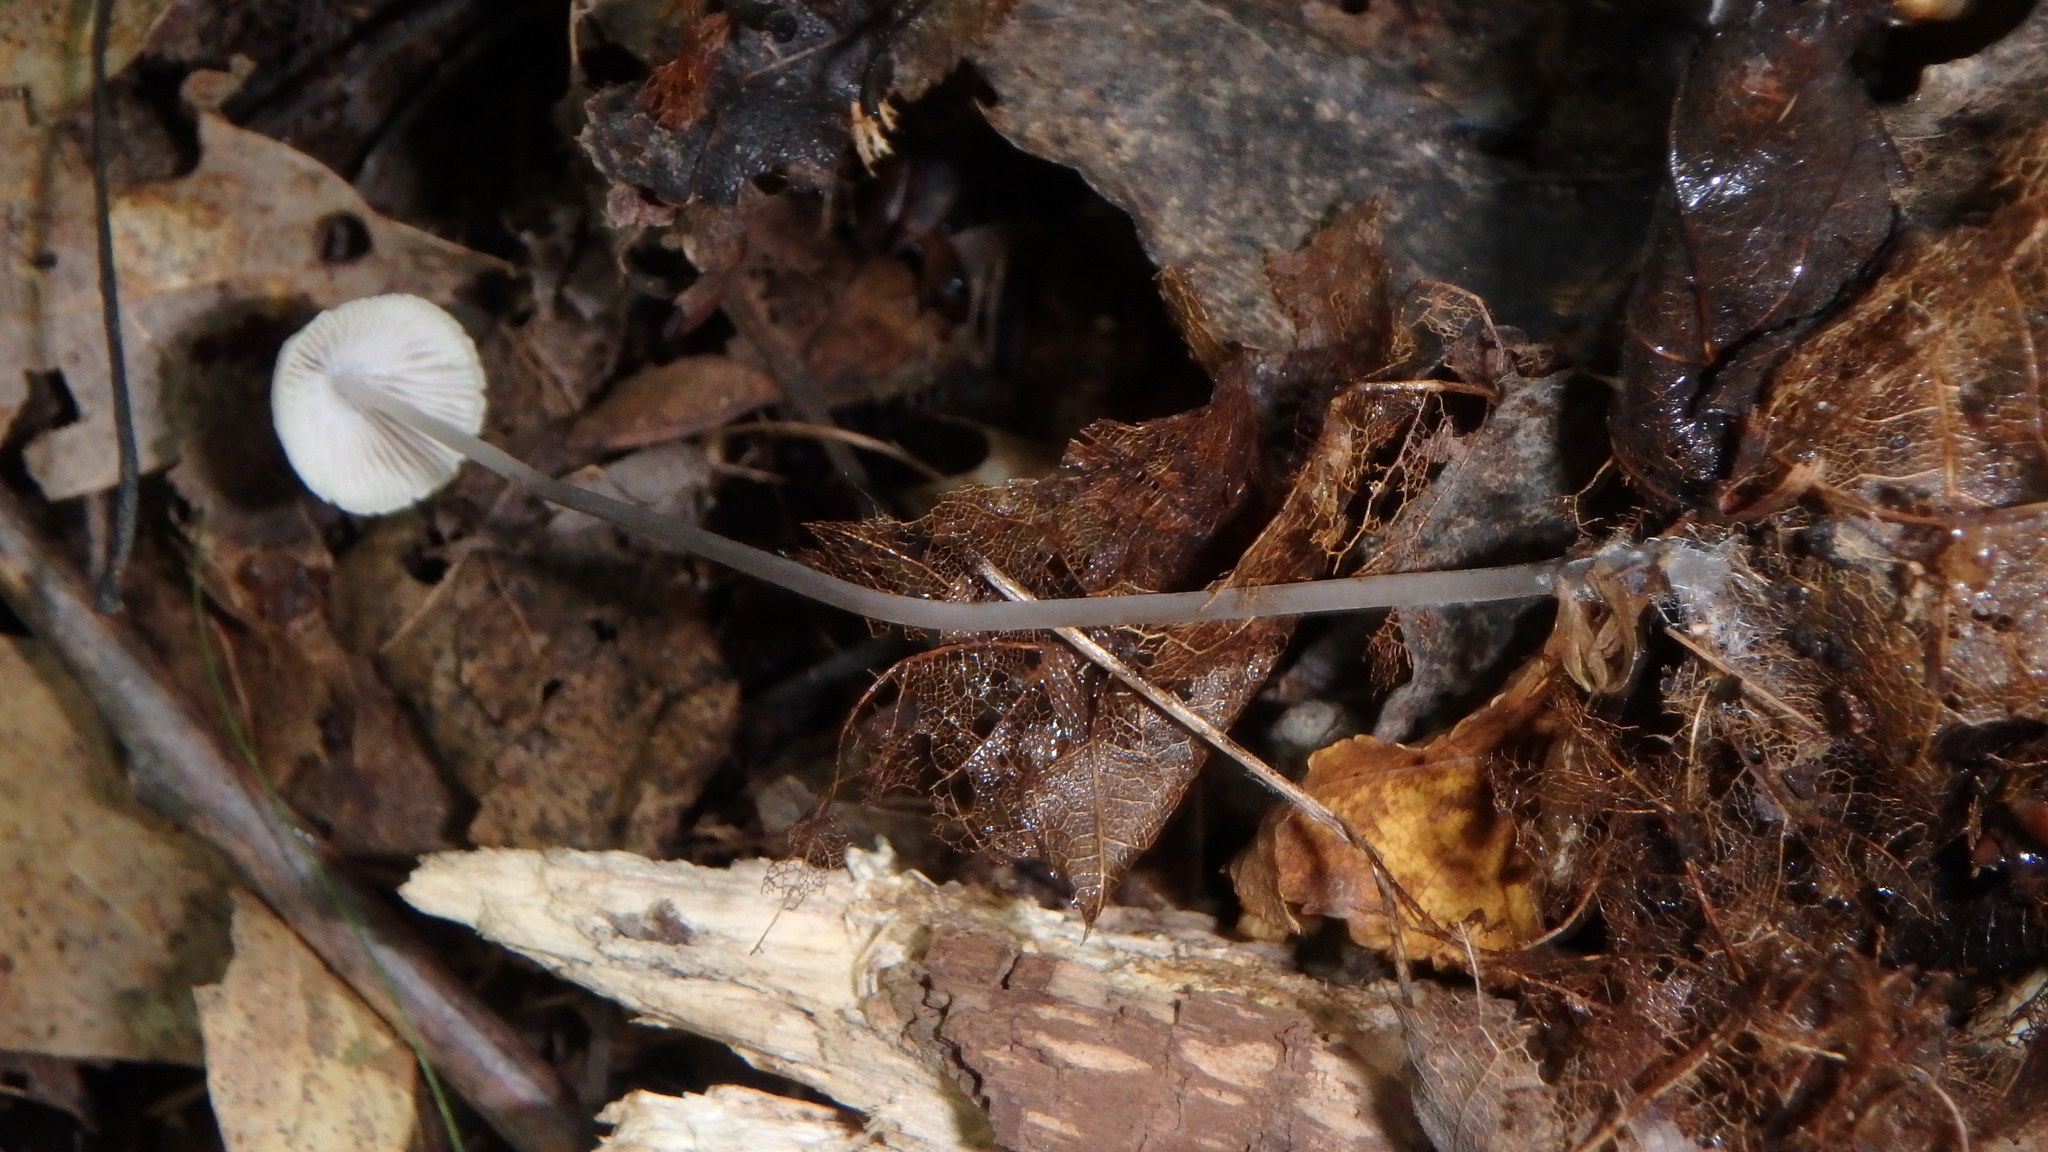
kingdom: Fungi
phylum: Basidiomycota
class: Agaricomycetes
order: Agaricales
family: Mycenaceae
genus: Mycena
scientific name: Mycena filopes
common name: Iodine bonnet
